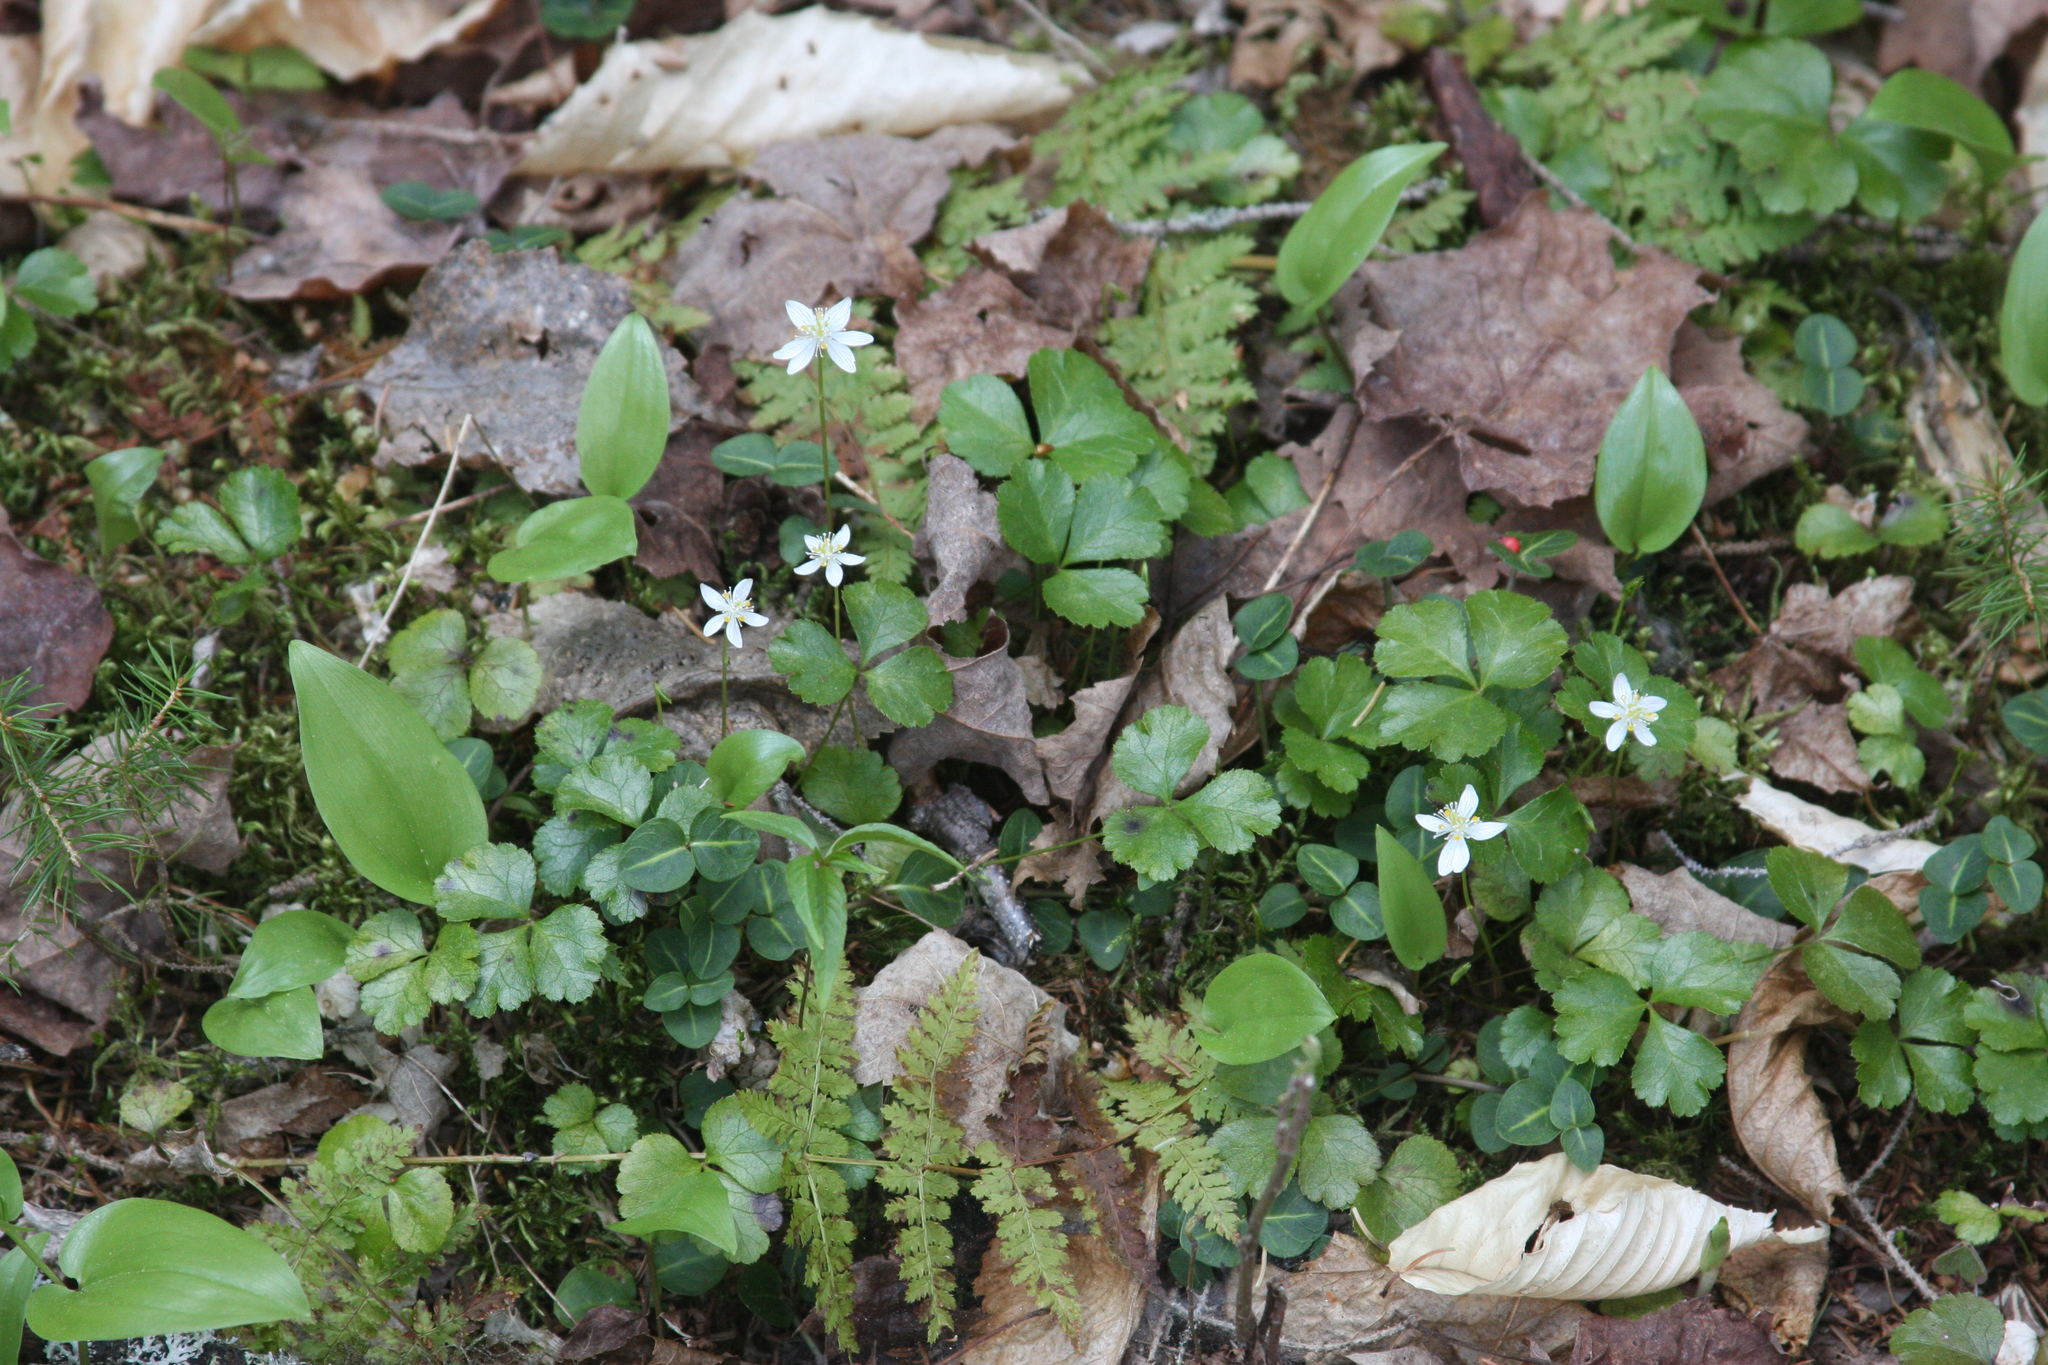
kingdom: Plantae
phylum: Tracheophyta
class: Magnoliopsida
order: Ranunculales
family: Ranunculaceae
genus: Coptis
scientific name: Coptis trifolia
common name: Canker-root
